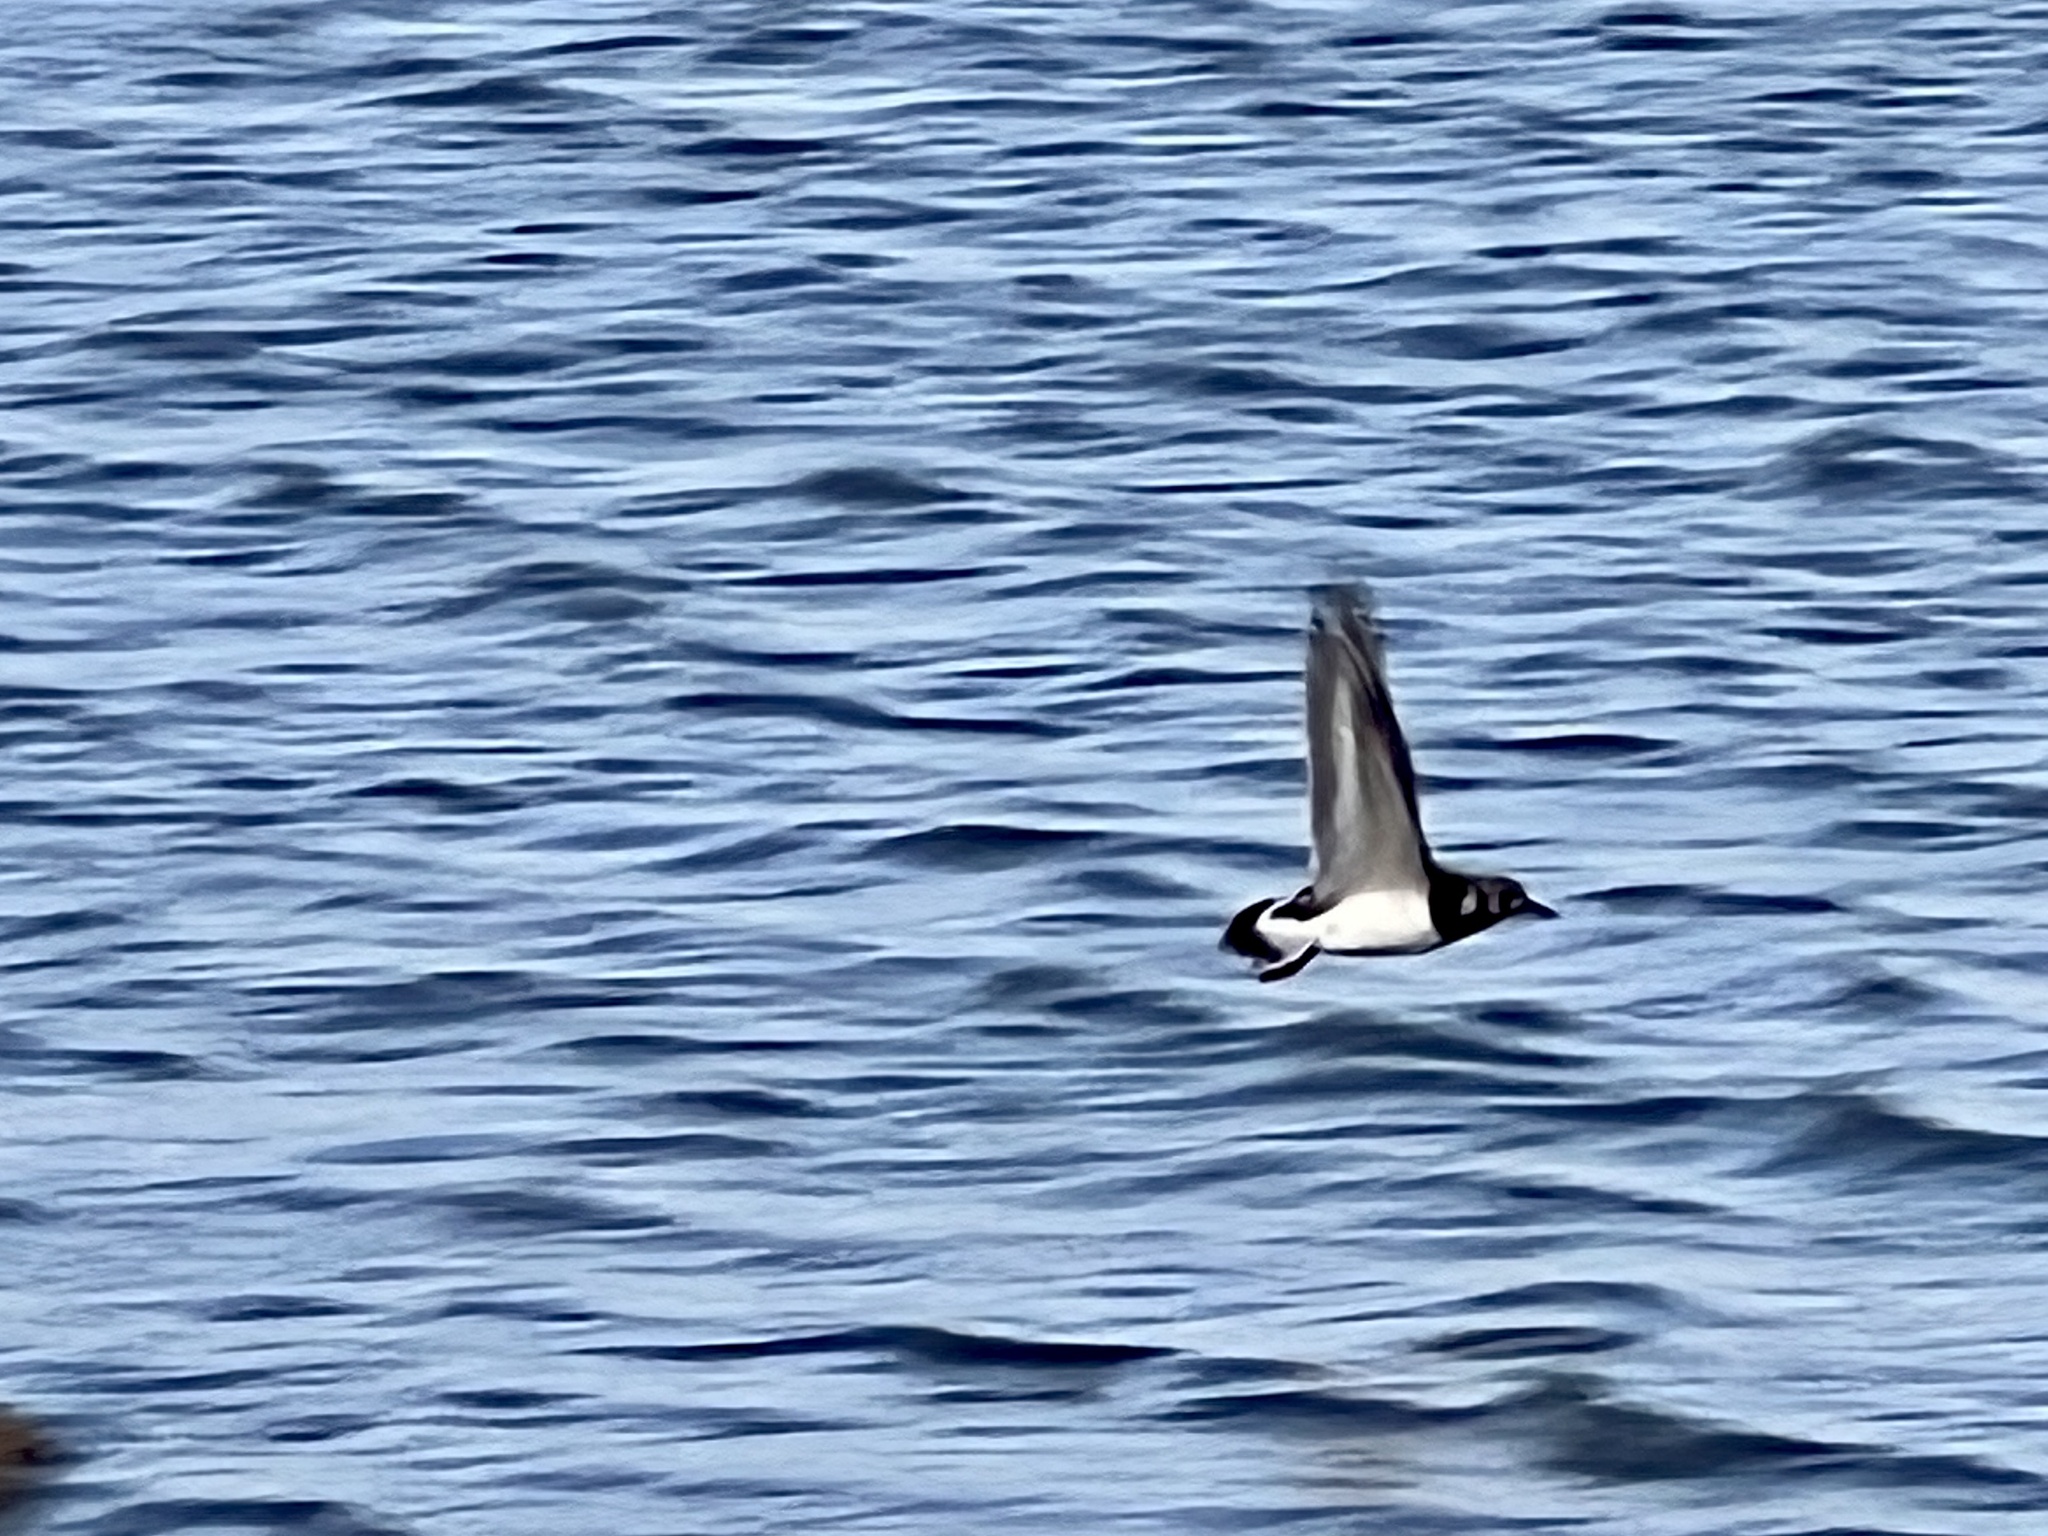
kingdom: Animalia
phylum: Chordata
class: Aves
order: Charadriiformes
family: Scolopacidae
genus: Arenaria
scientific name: Arenaria interpres
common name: Ruddy turnstone
